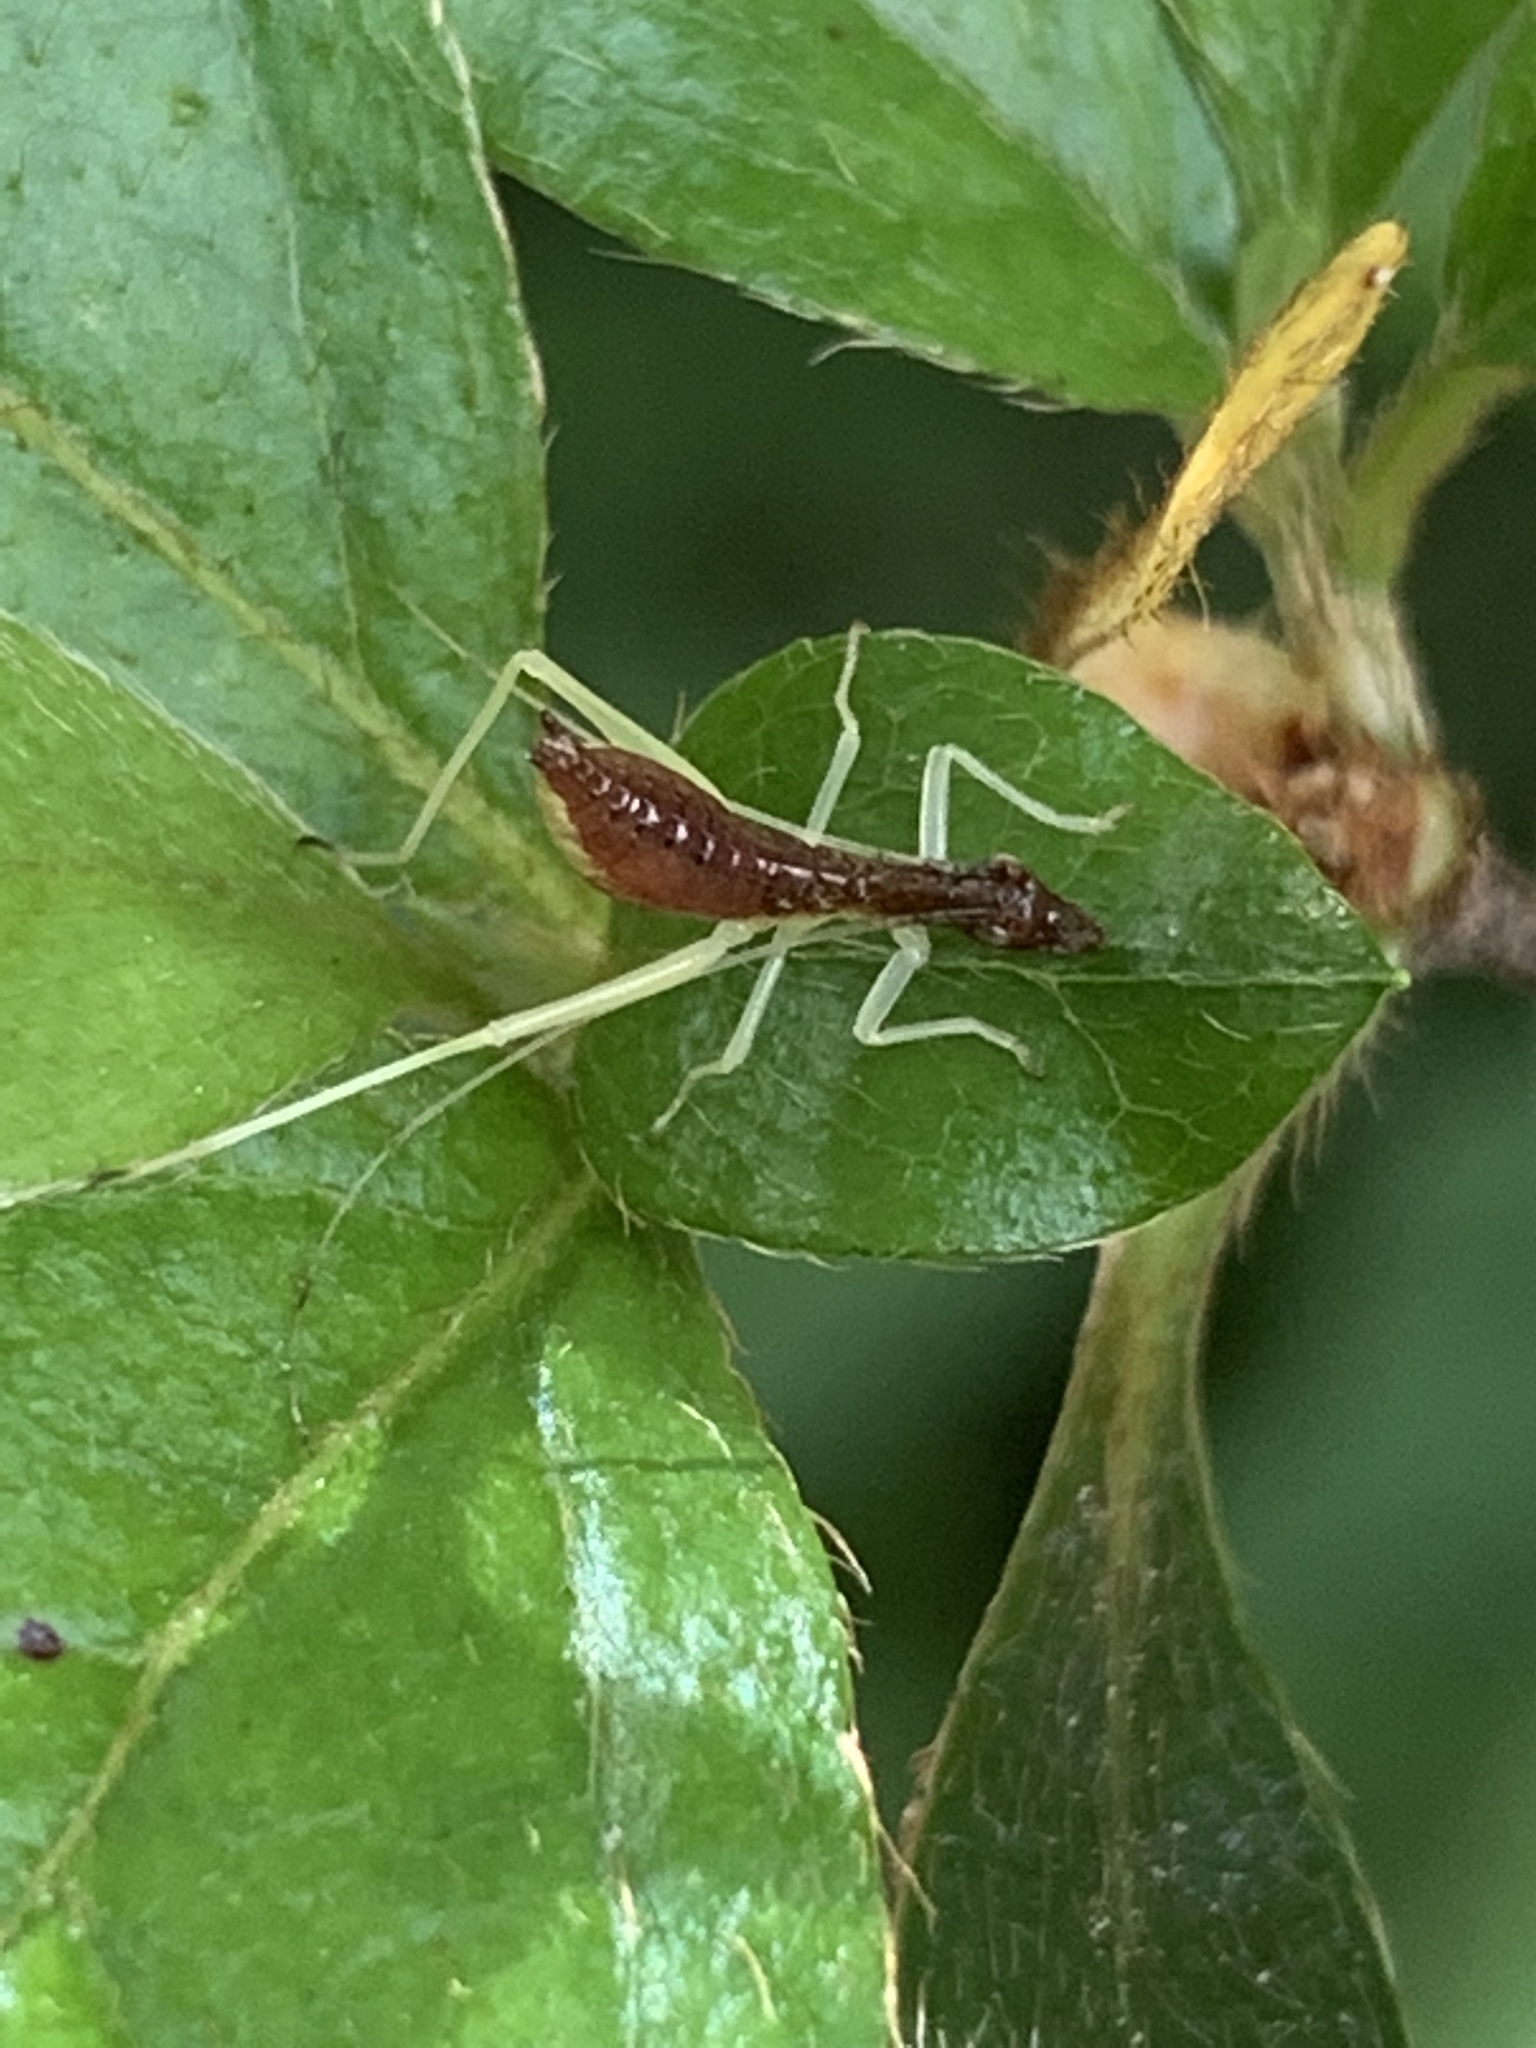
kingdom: Animalia
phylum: Arthropoda
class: Insecta
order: Orthoptera
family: Gryllidae
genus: Neoxabea
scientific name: Neoxabea bipunctata
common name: Two-spotted tree cricket
